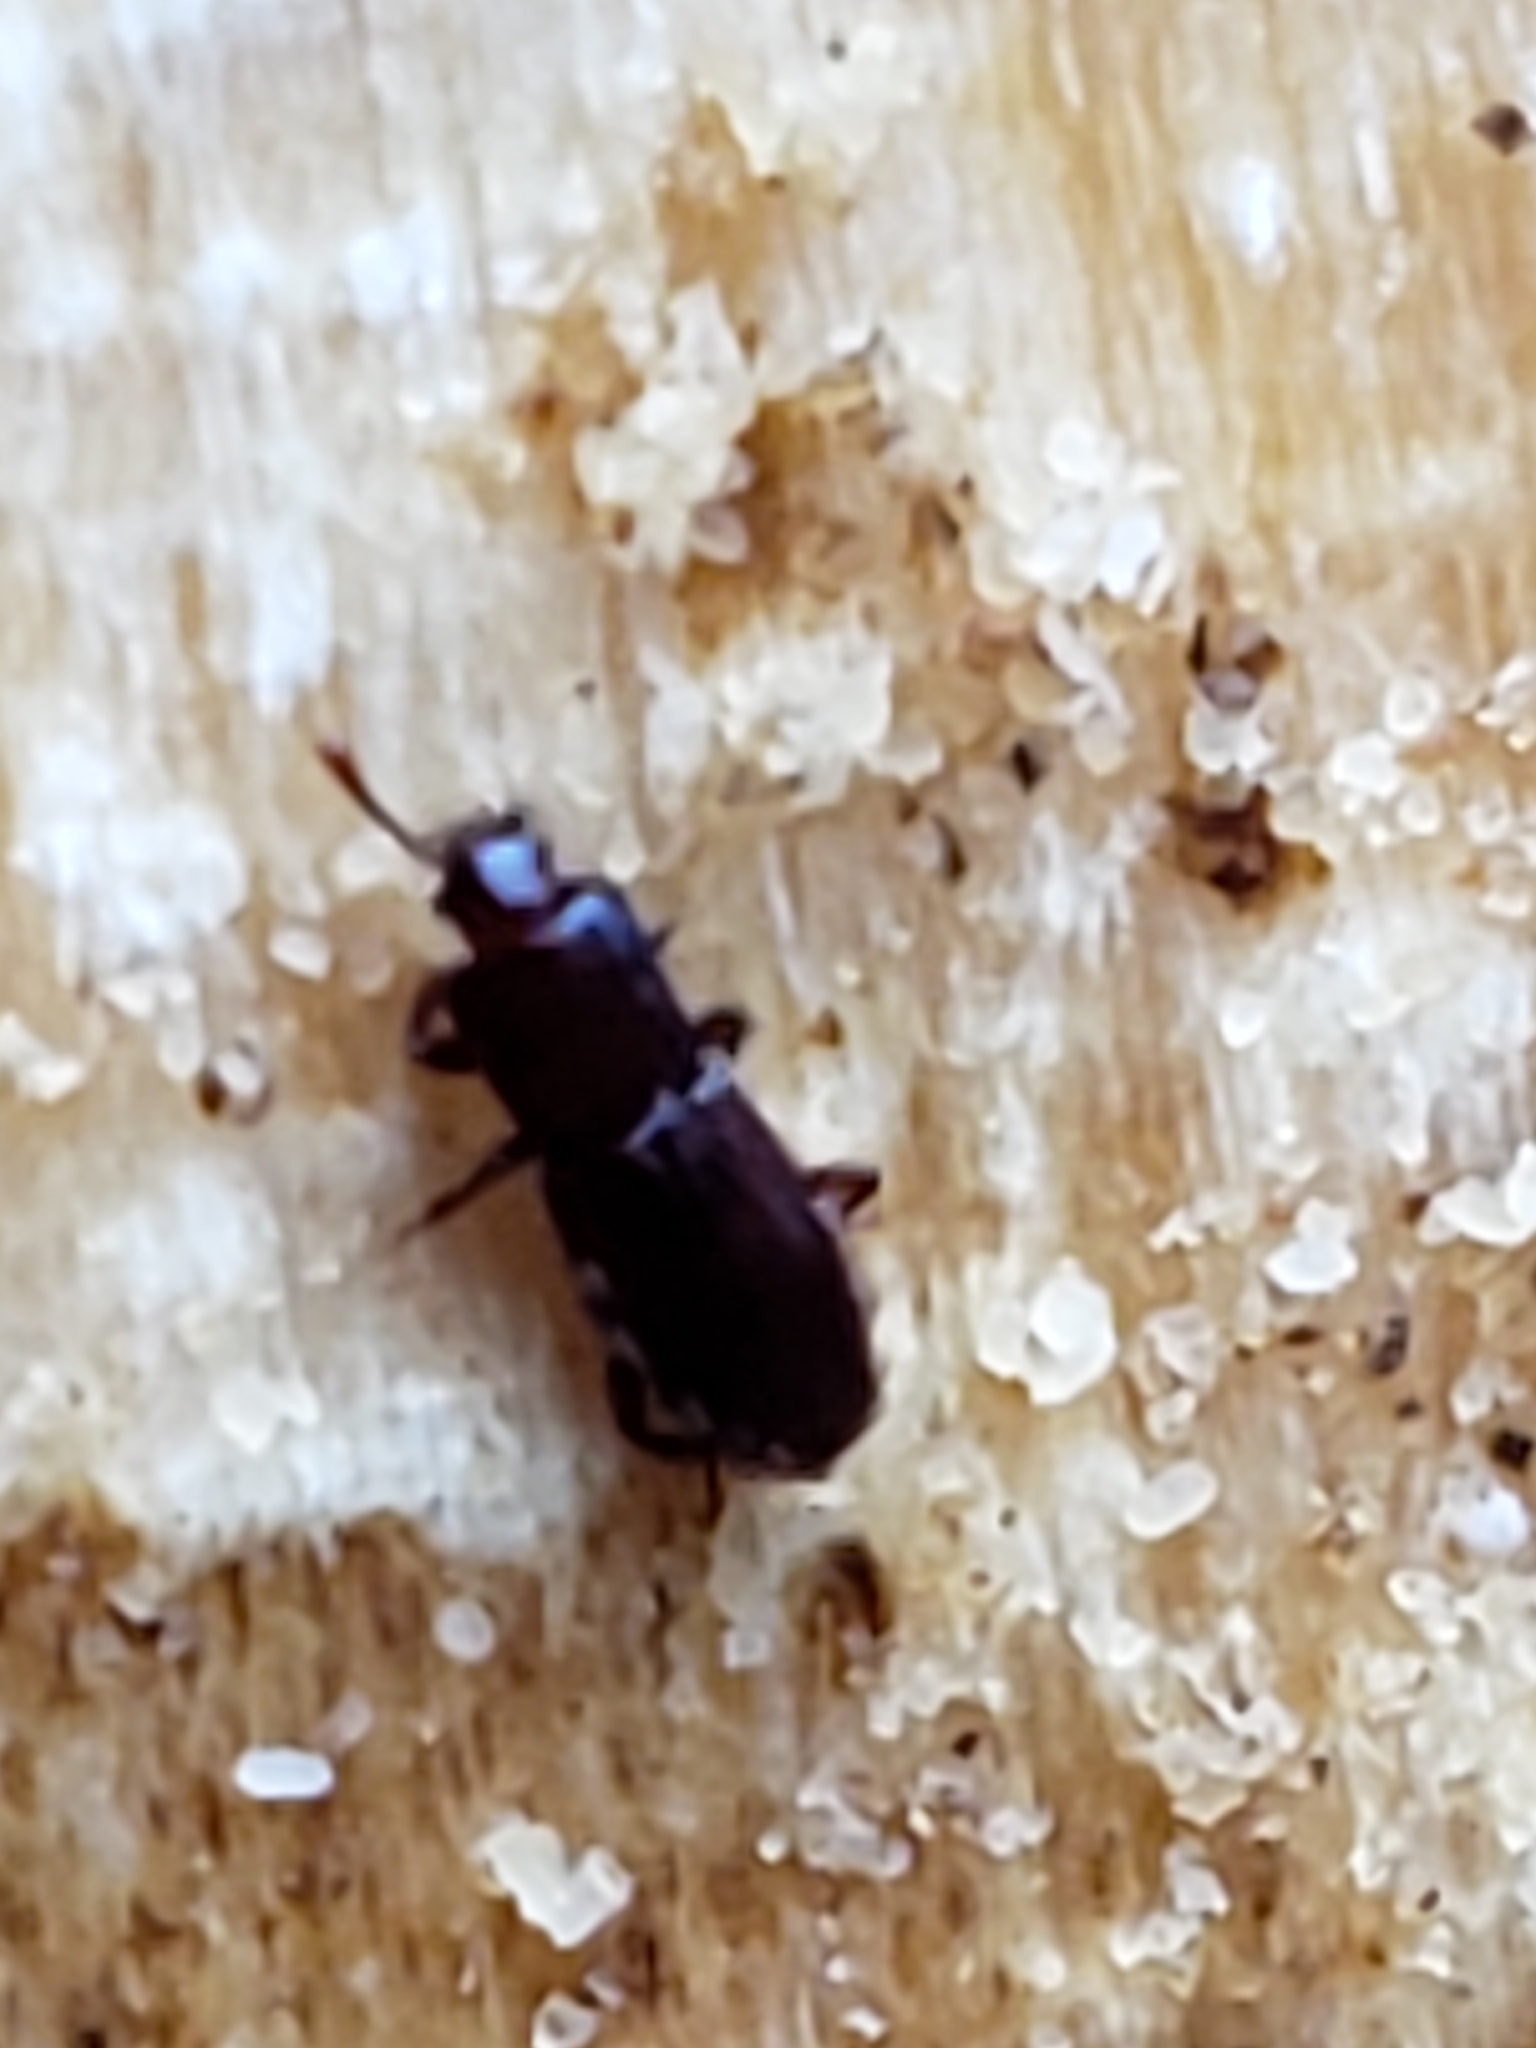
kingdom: Animalia
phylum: Arthropoda
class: Insecta
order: Coleoptera
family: Cerylonidae
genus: Cerylon
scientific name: Cerylon unicolor
